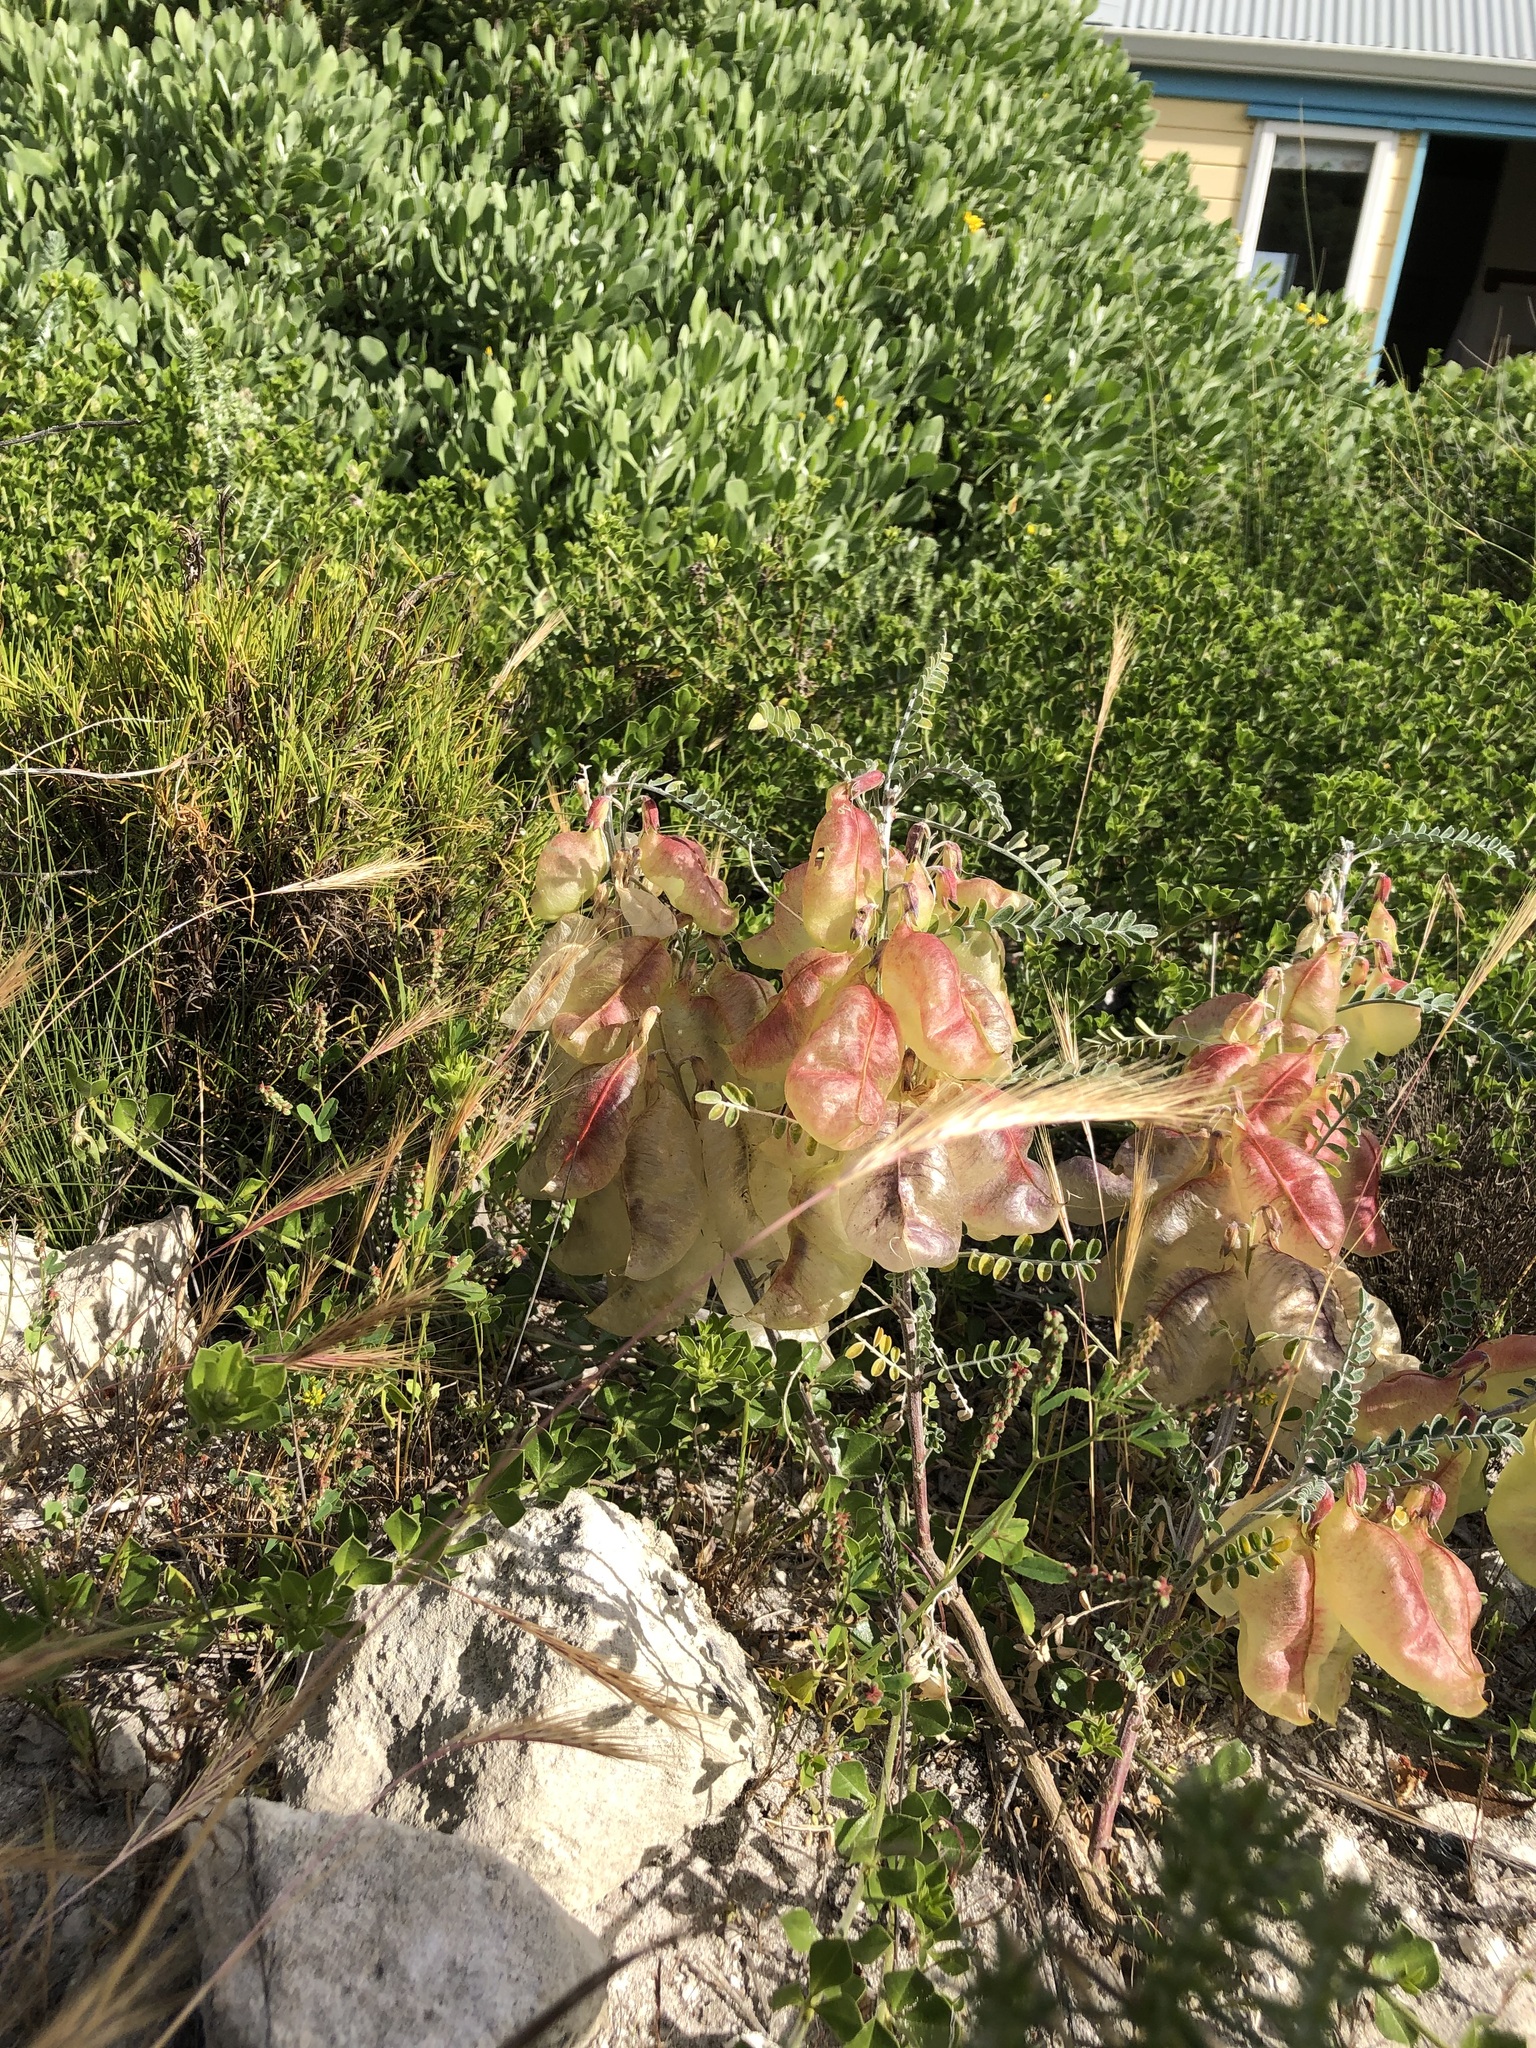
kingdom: Plantae
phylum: Tracheophyta
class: Magnoliopsida
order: Fabales
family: Fabaceae
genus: Lessertia
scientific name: Lessertia frutescens
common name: Balloon-pea
